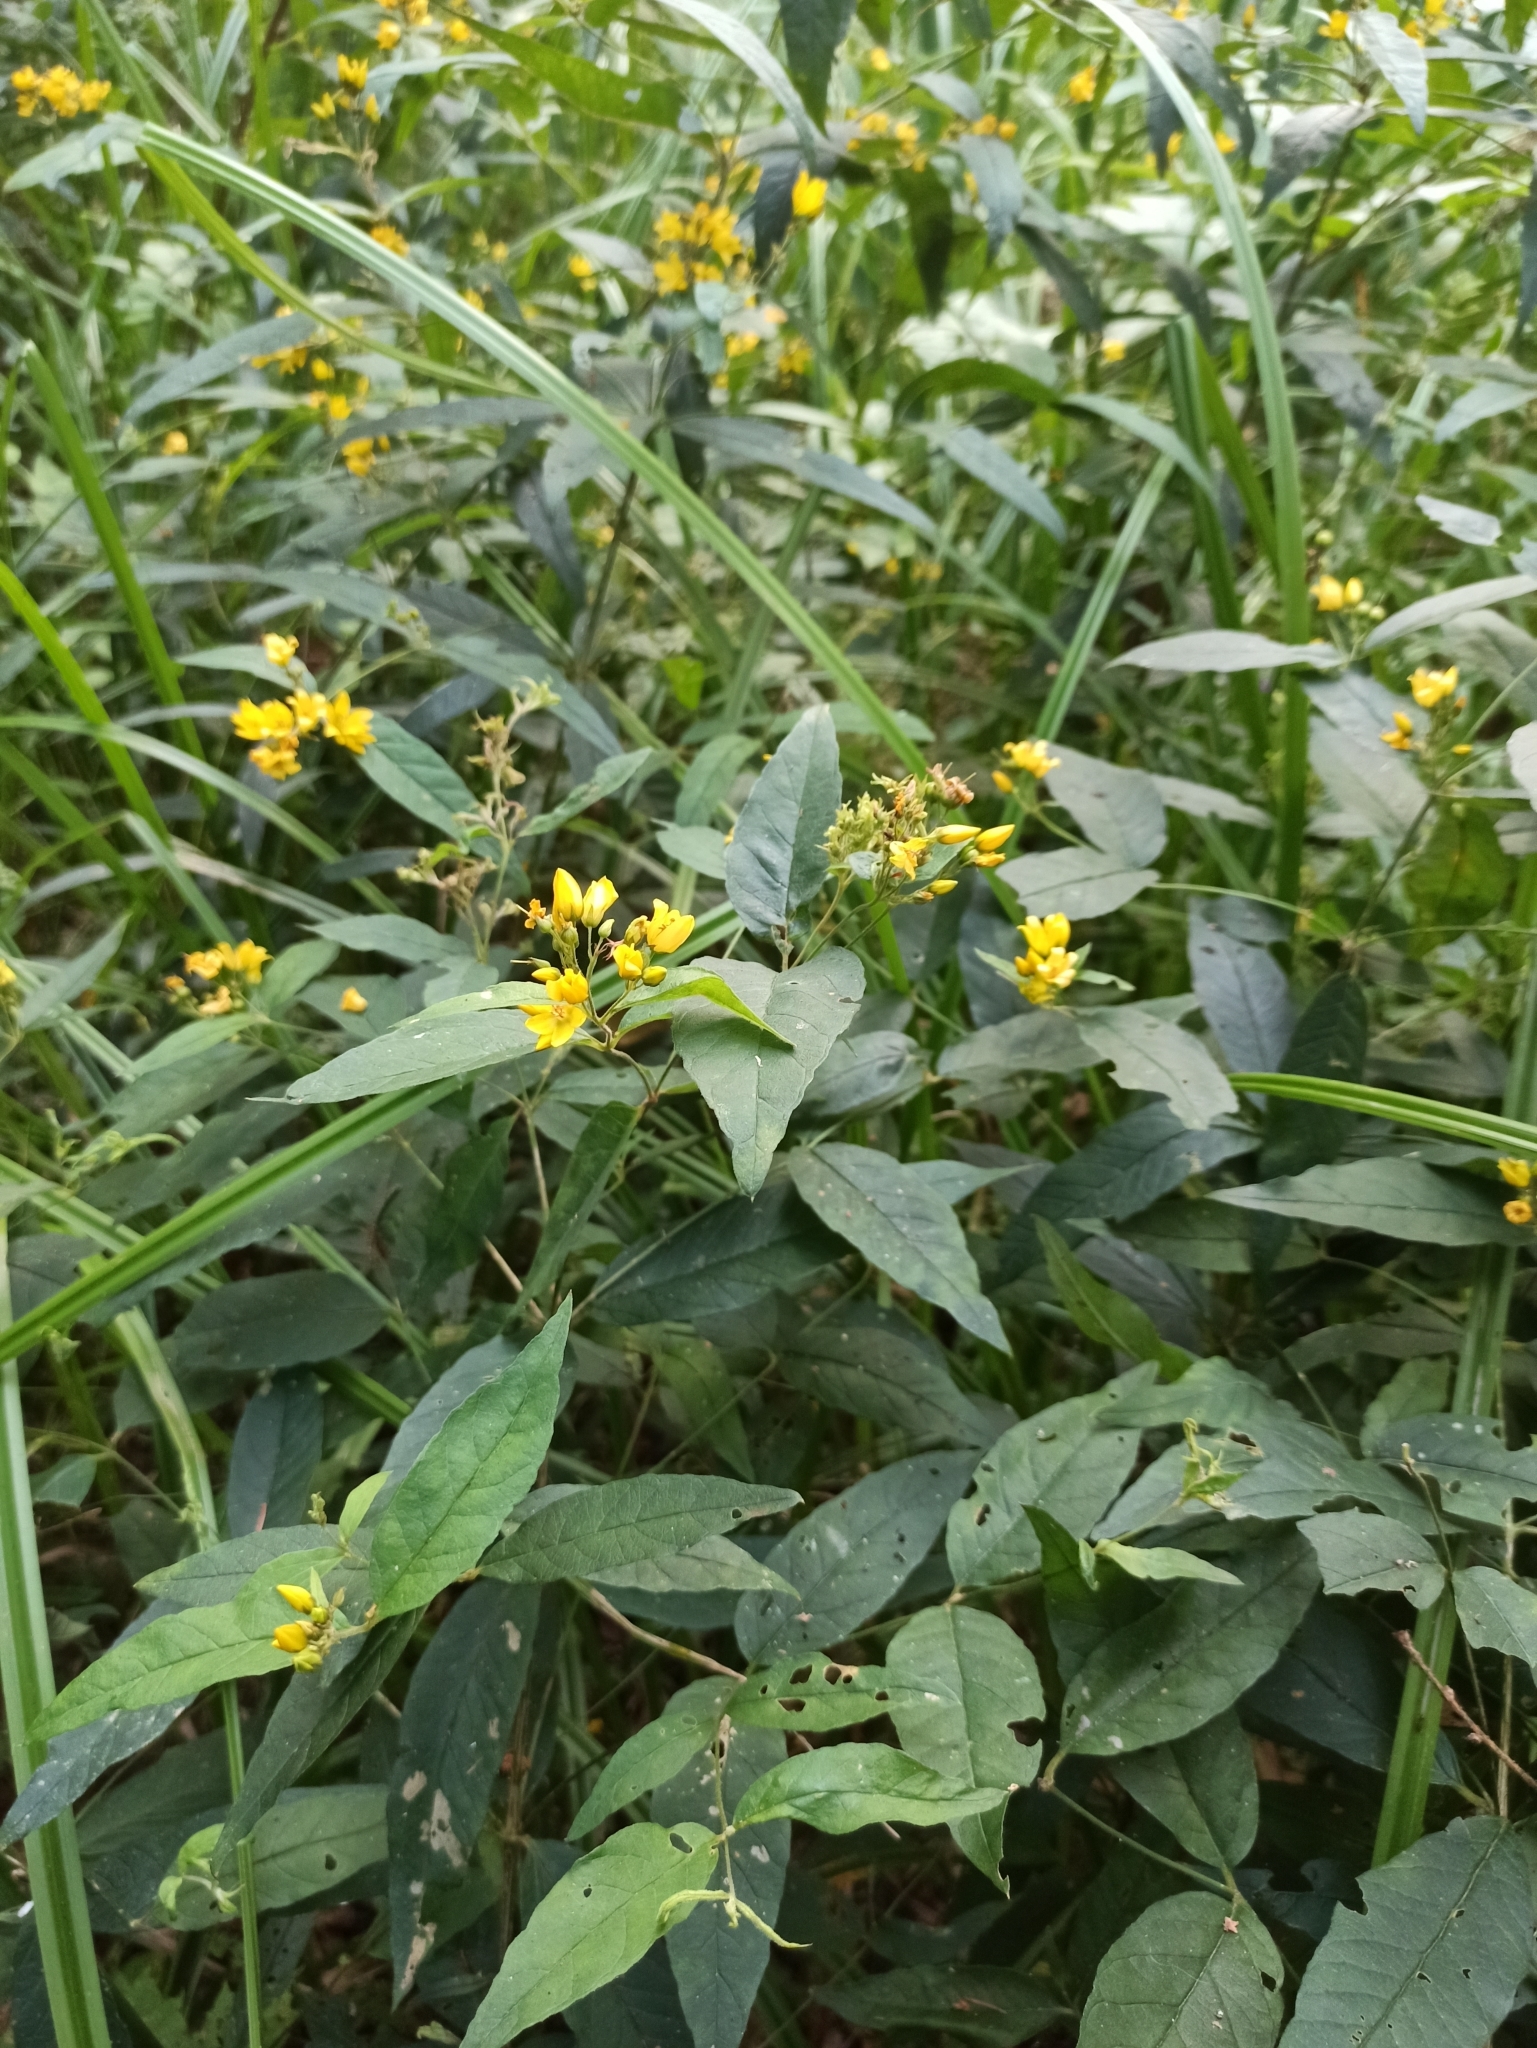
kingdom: Plantae
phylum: Tracheophyta
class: Magnoliopsida
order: Ericales
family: Primulaceae
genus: Lysimachia
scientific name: Lysimachia vulgaris
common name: Yellow loosestrife
